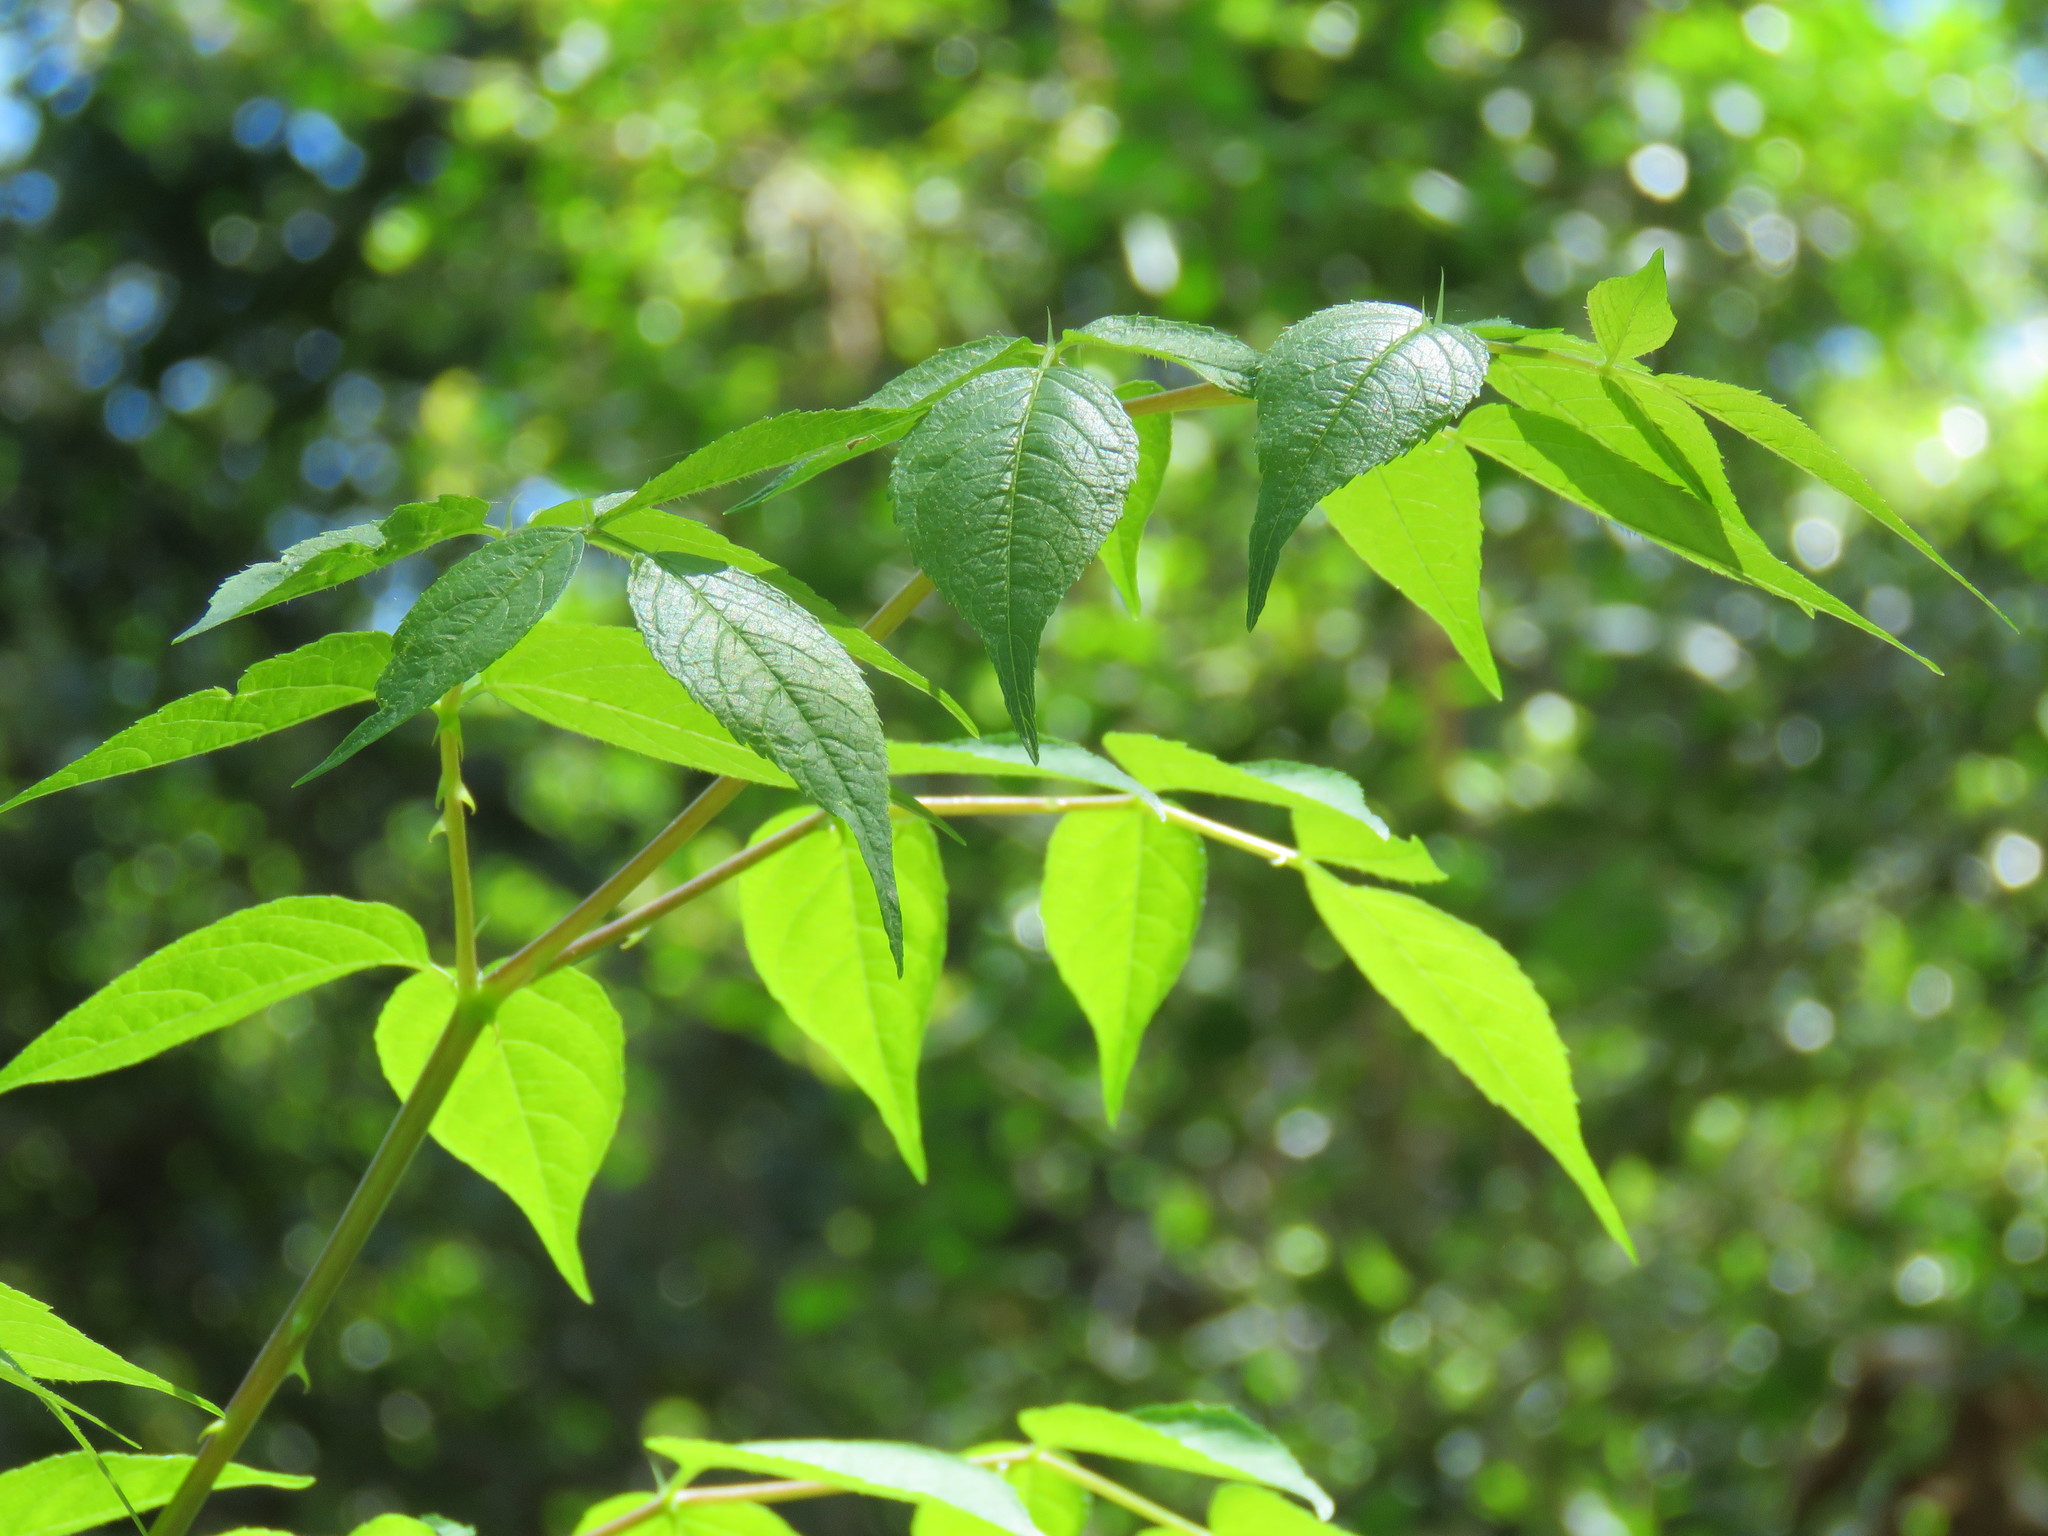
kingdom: Plantae
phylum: Tracheophyta
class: Magnoliopsida
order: Apiales
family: Araliaceae
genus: Aralia
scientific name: Aralia spinosa
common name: Hercules'-club
